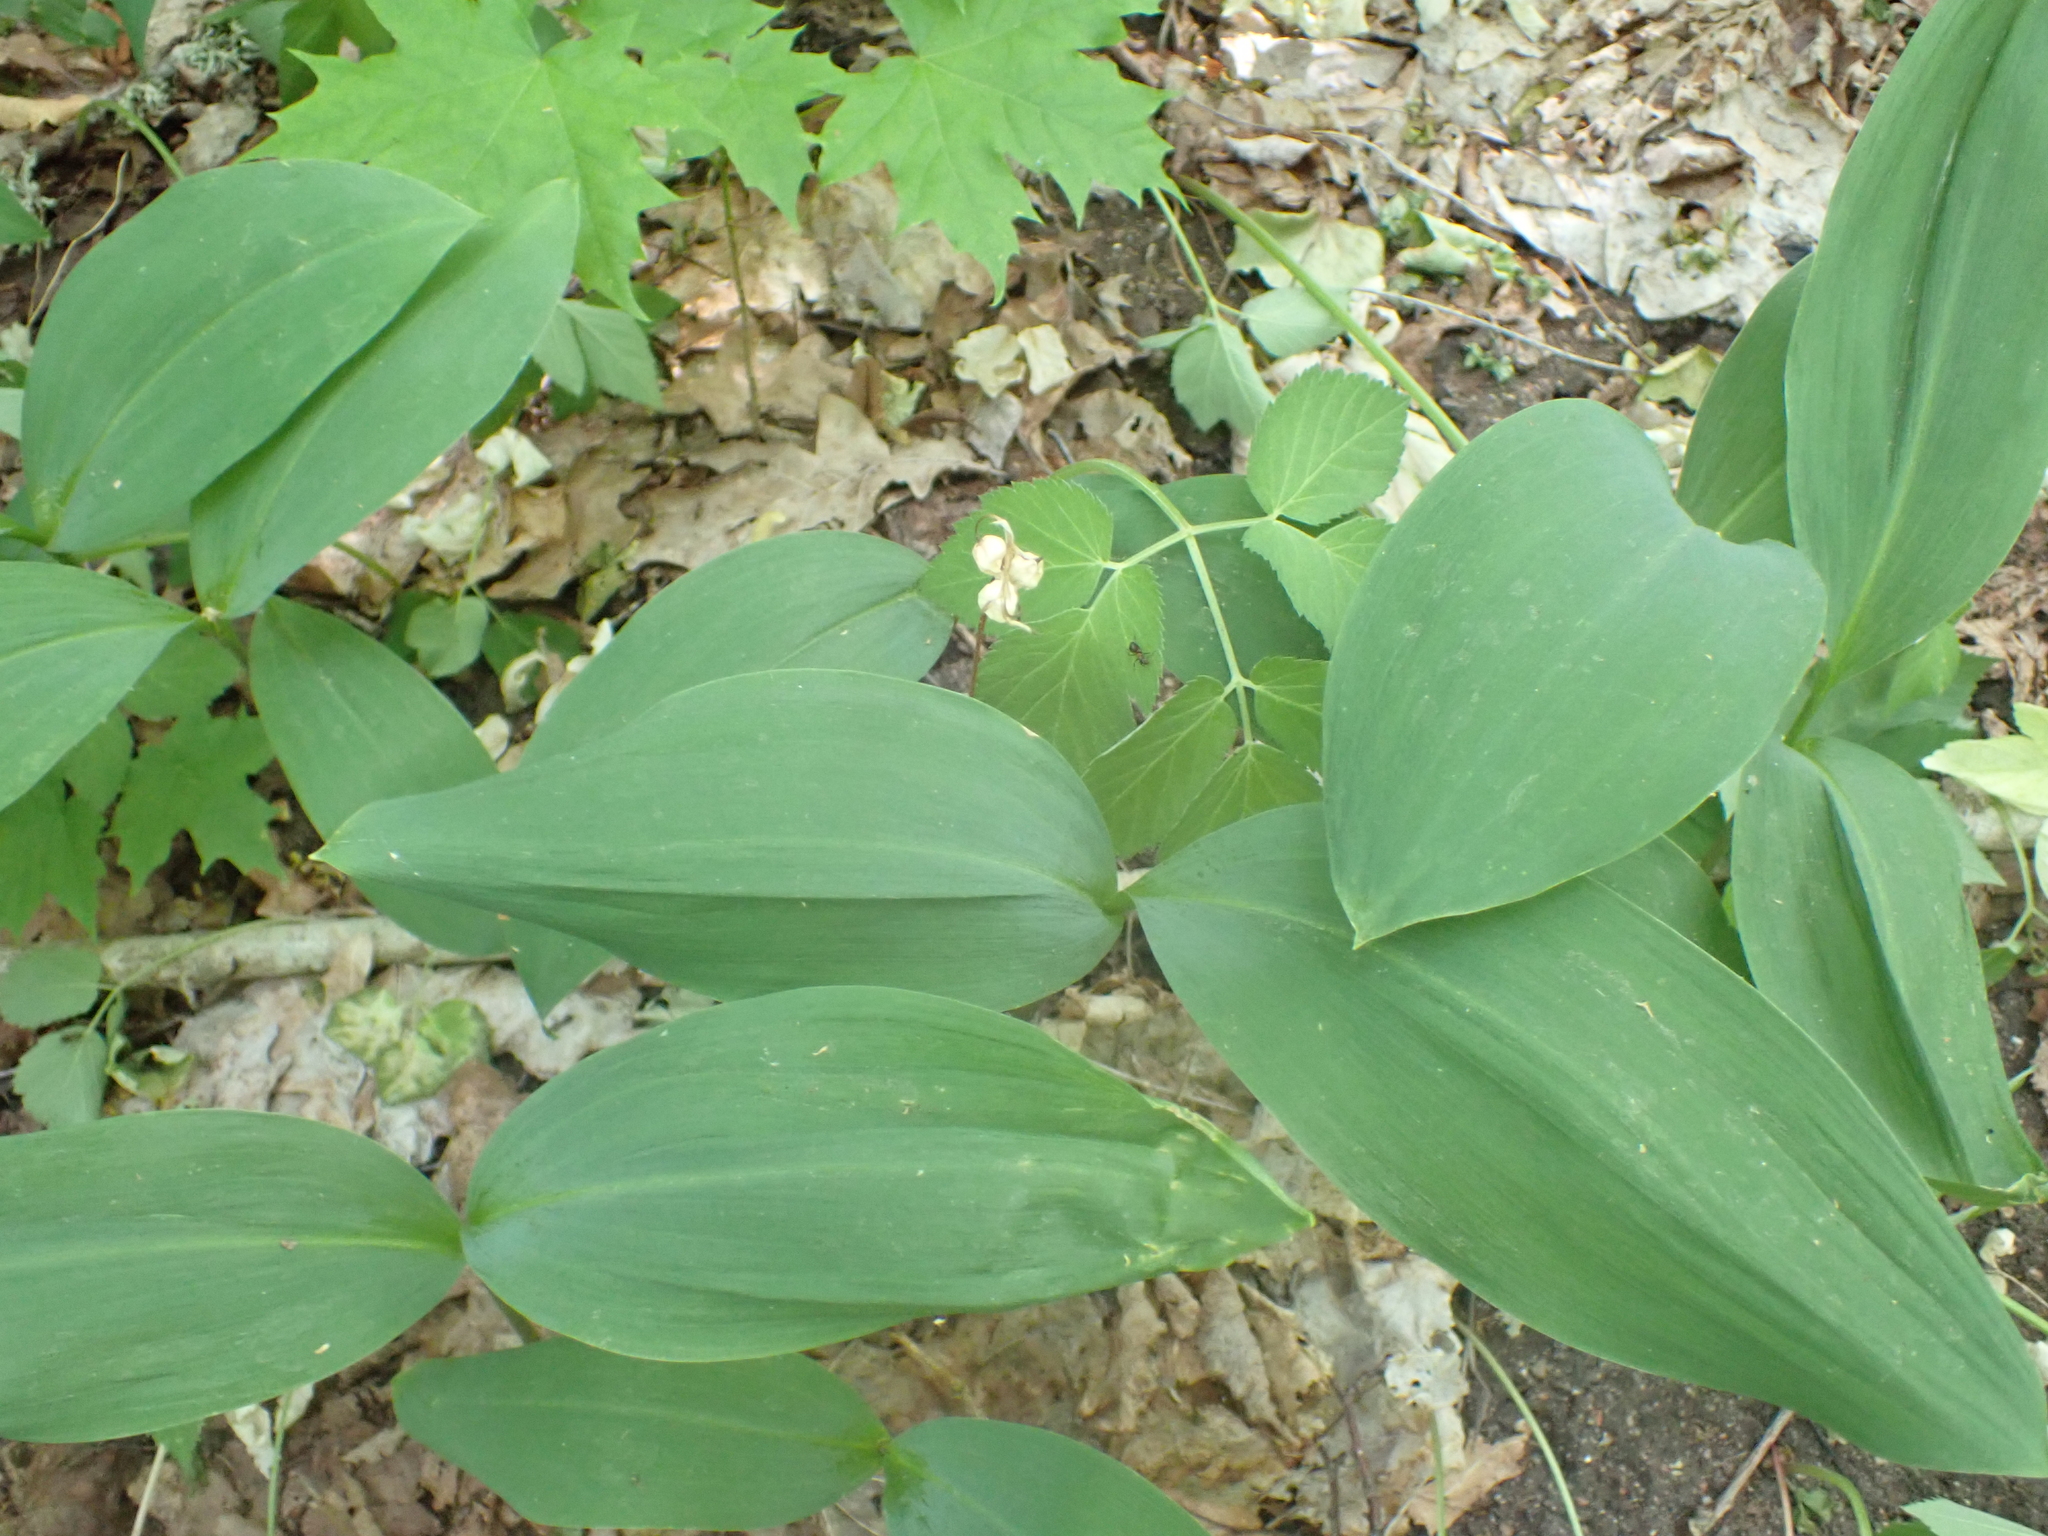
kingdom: Plantae
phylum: Tracheophyta
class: Liliopsida
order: Asparagales
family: Asparagaceae
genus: Convallaria
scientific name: Convallaria majalis
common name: Lily-of-the-valley
